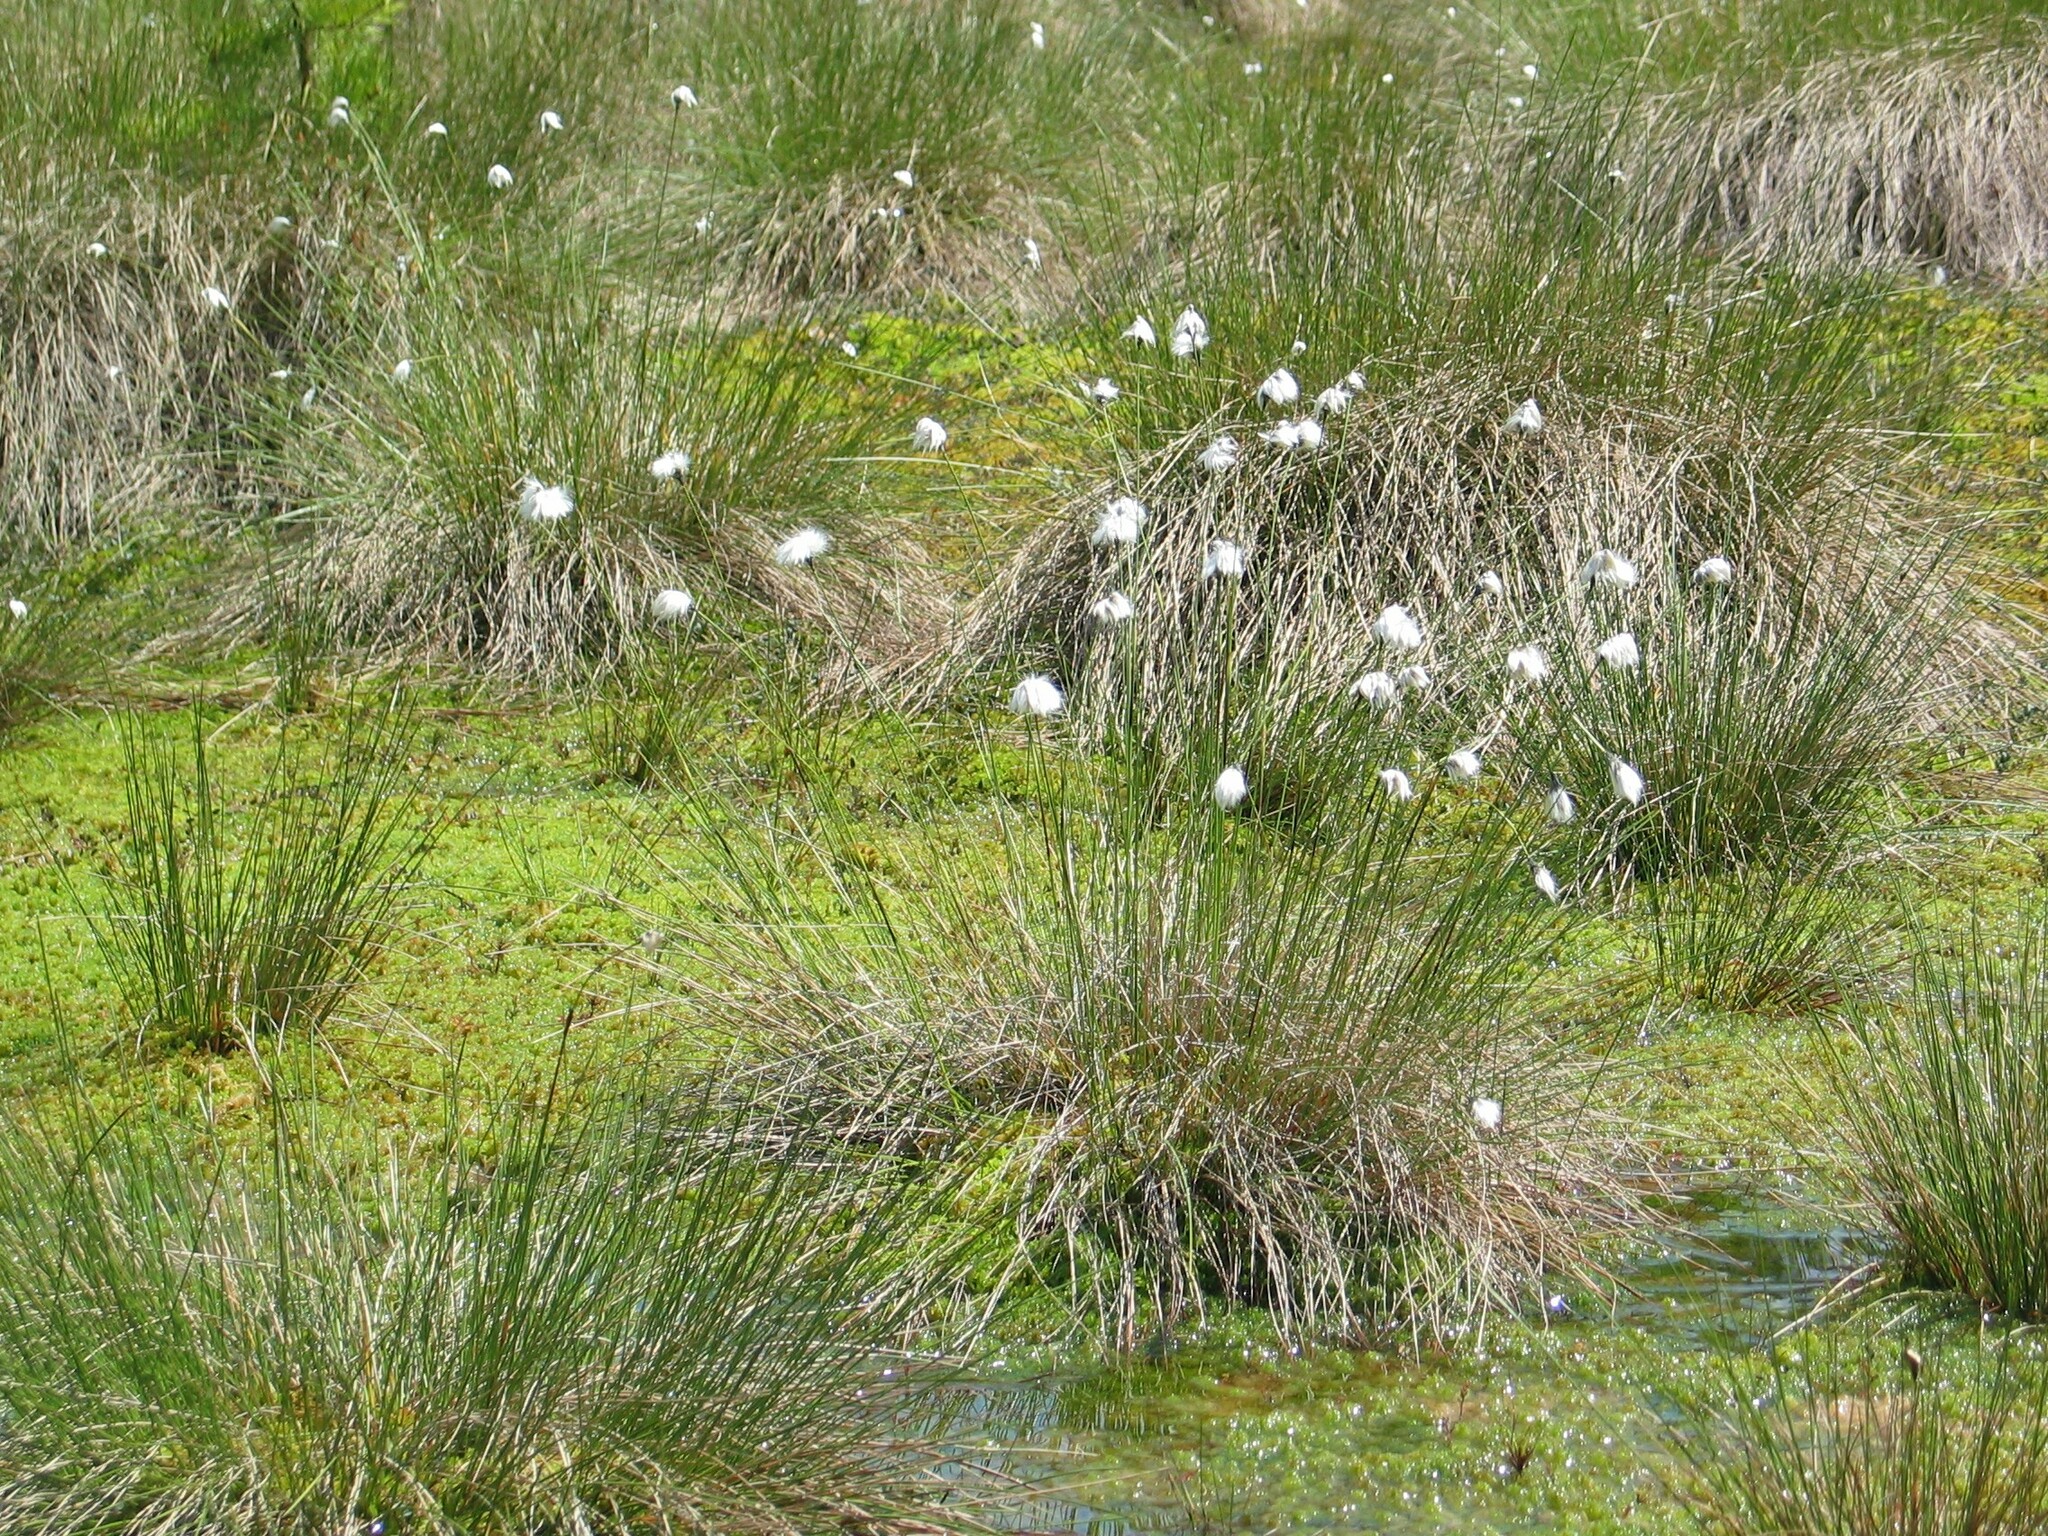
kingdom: Plantae
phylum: Tracheophyta
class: Liliopsida
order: Poales
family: Cyperaceae
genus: Eriophorum
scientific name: Eriophorum vaginatum
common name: Hare's-tail cottongrass
